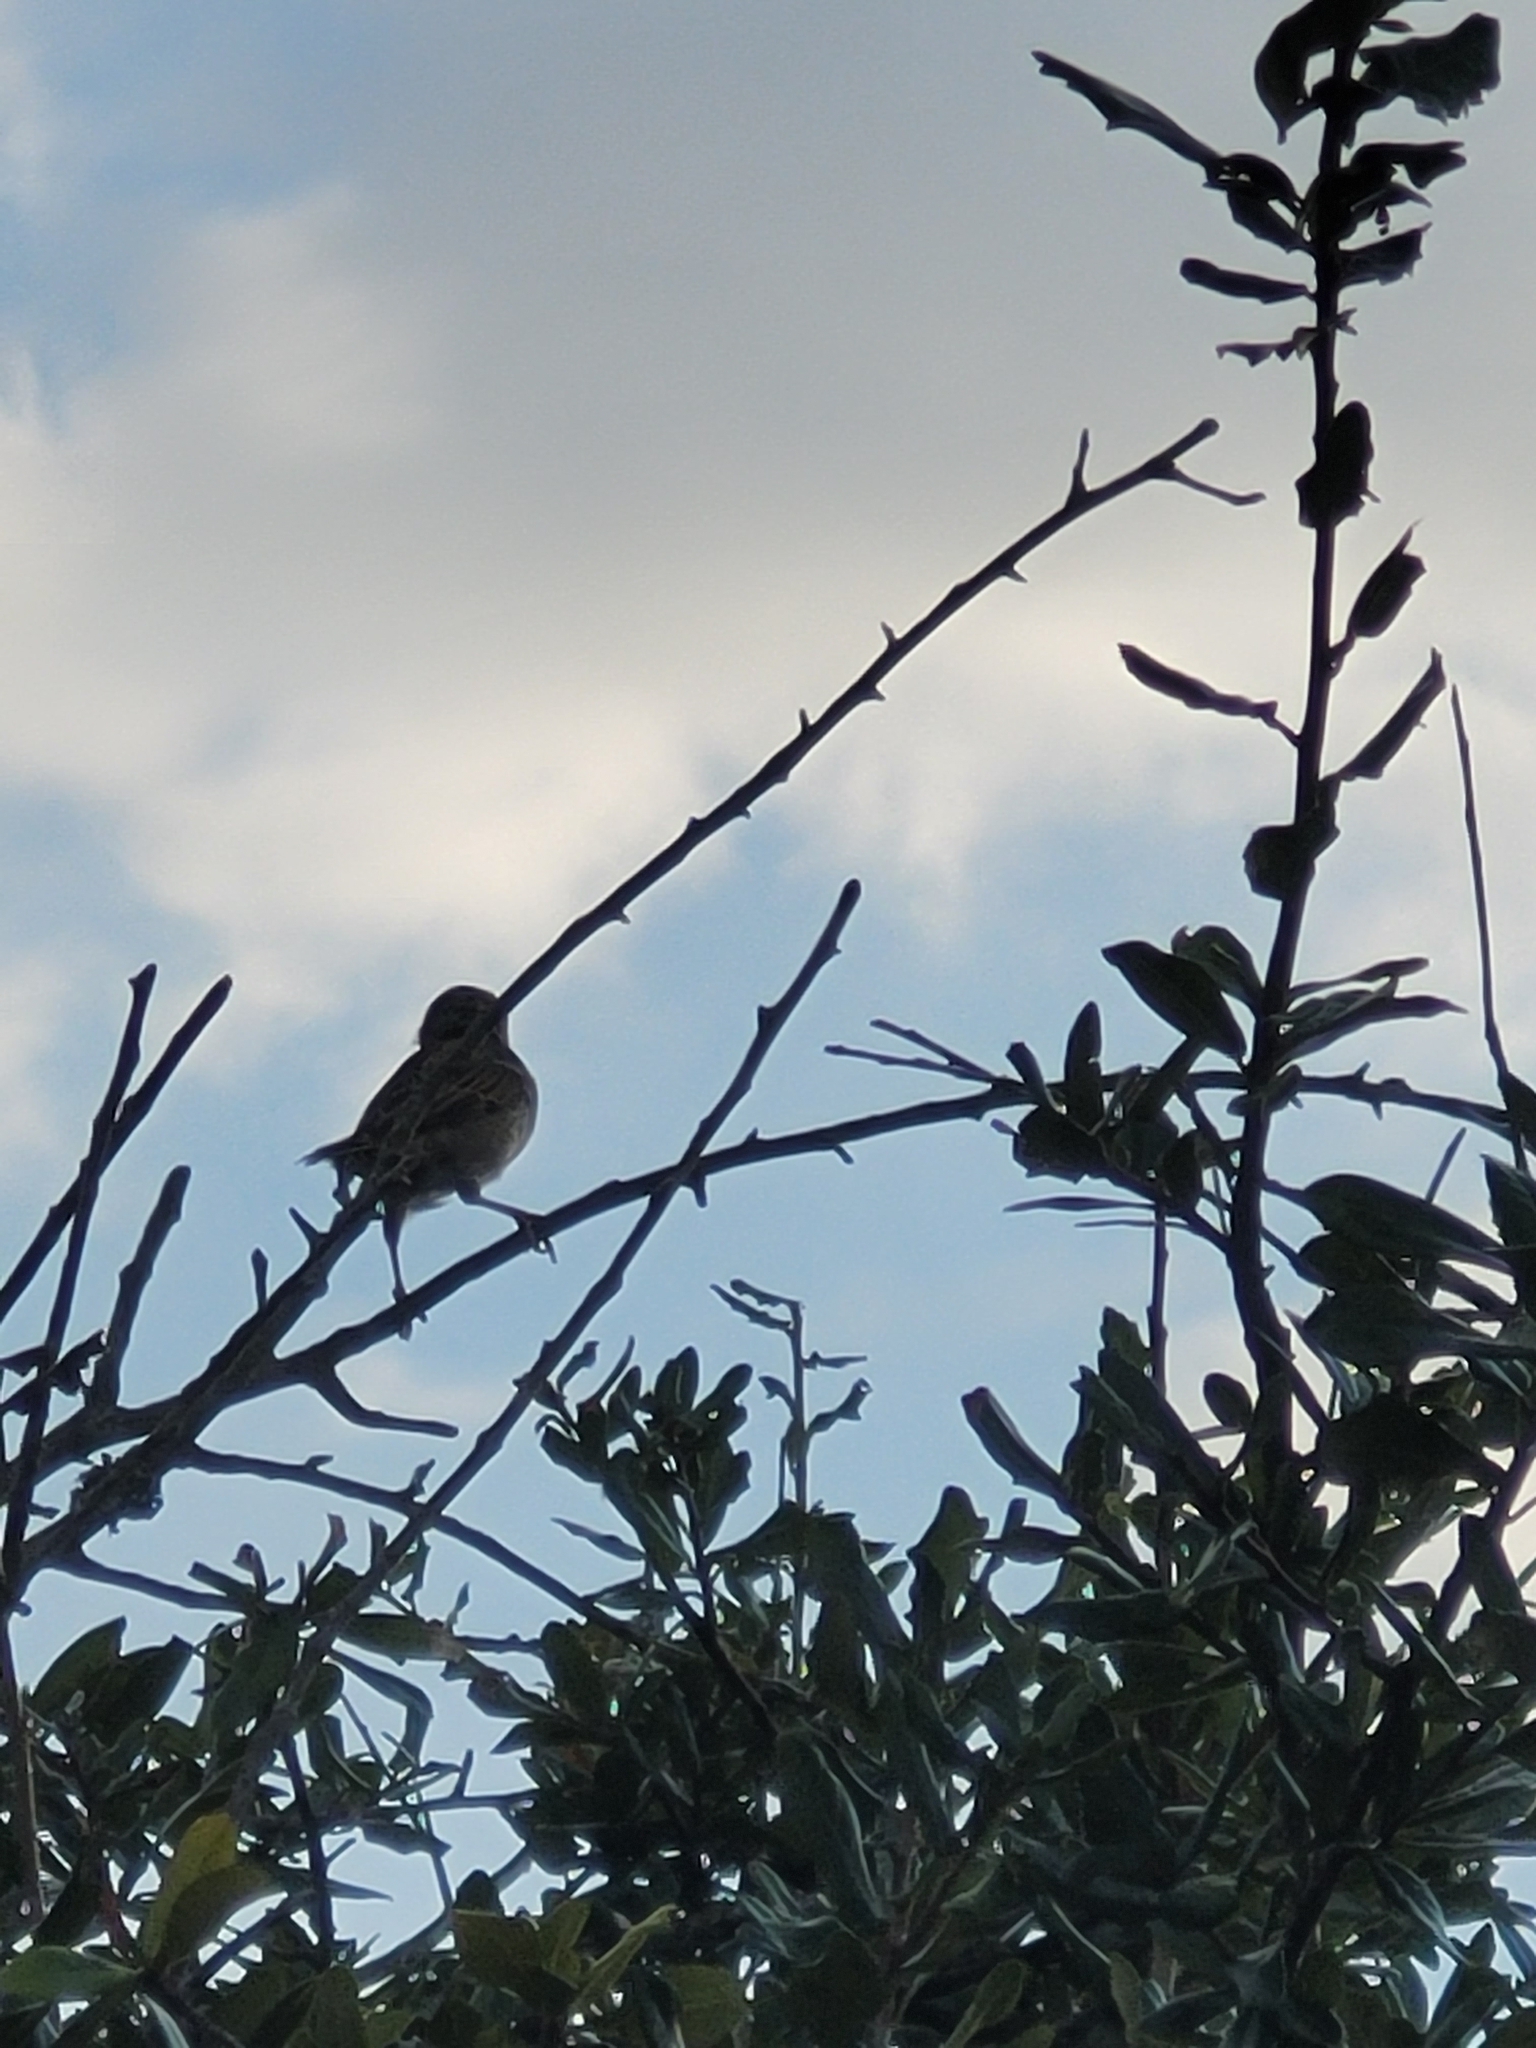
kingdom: Animalia
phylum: Chordata
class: Aves
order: Passeriformes
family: Passeridae
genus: Passer
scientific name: Passer domesticus
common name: House sparrow
